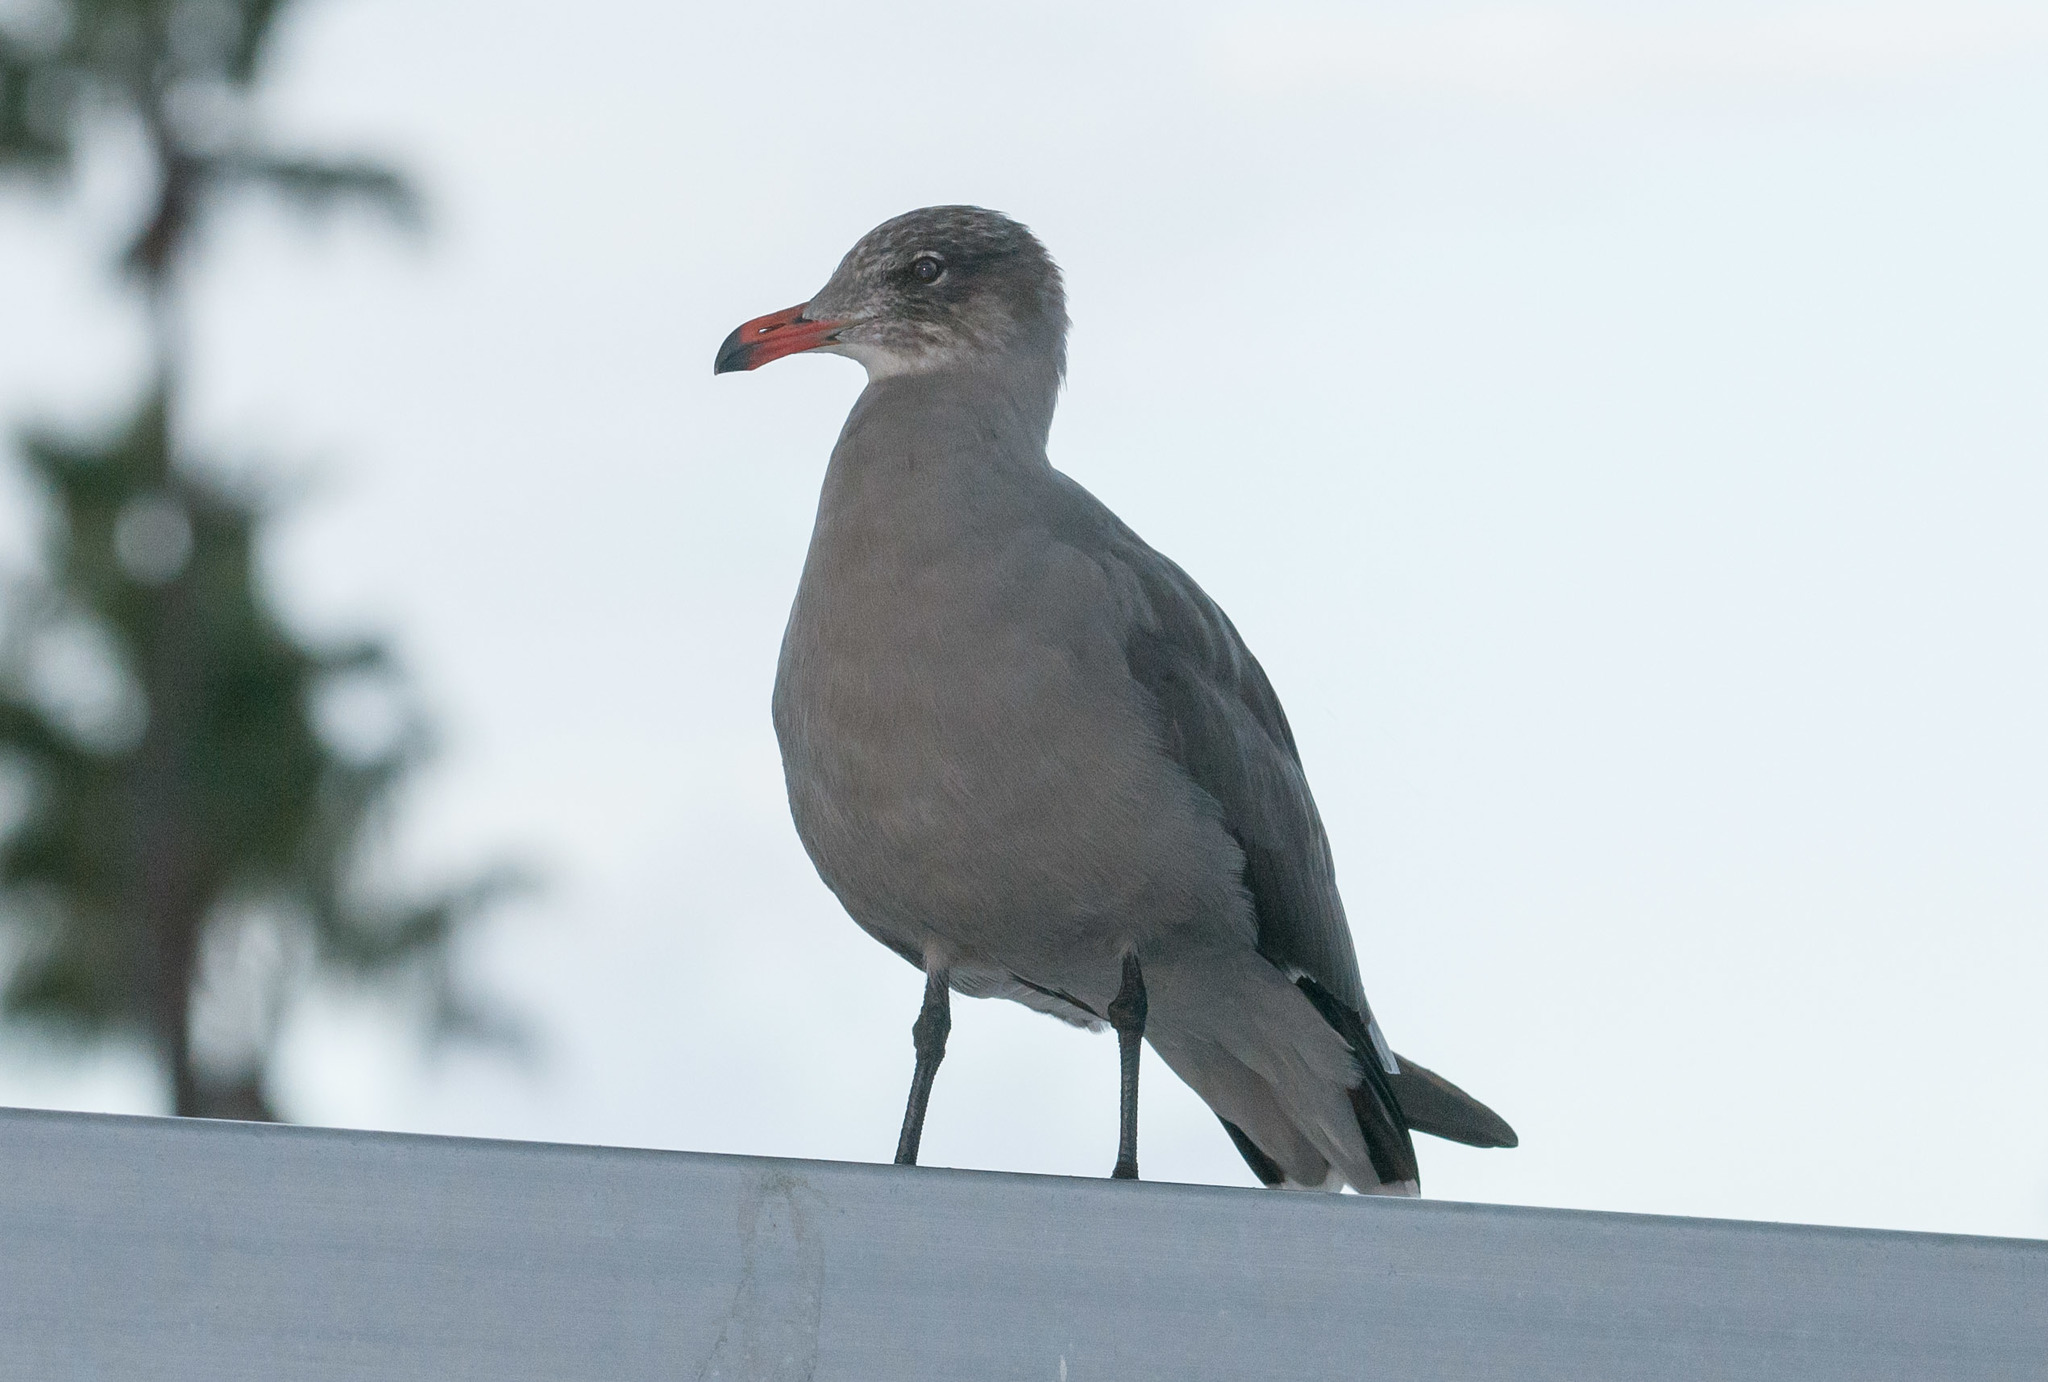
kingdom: Animalia
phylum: Chordata
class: Aves
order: Charadriiformes
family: Laridae
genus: Larus
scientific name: Larus heermanni
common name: Heermann's gull
